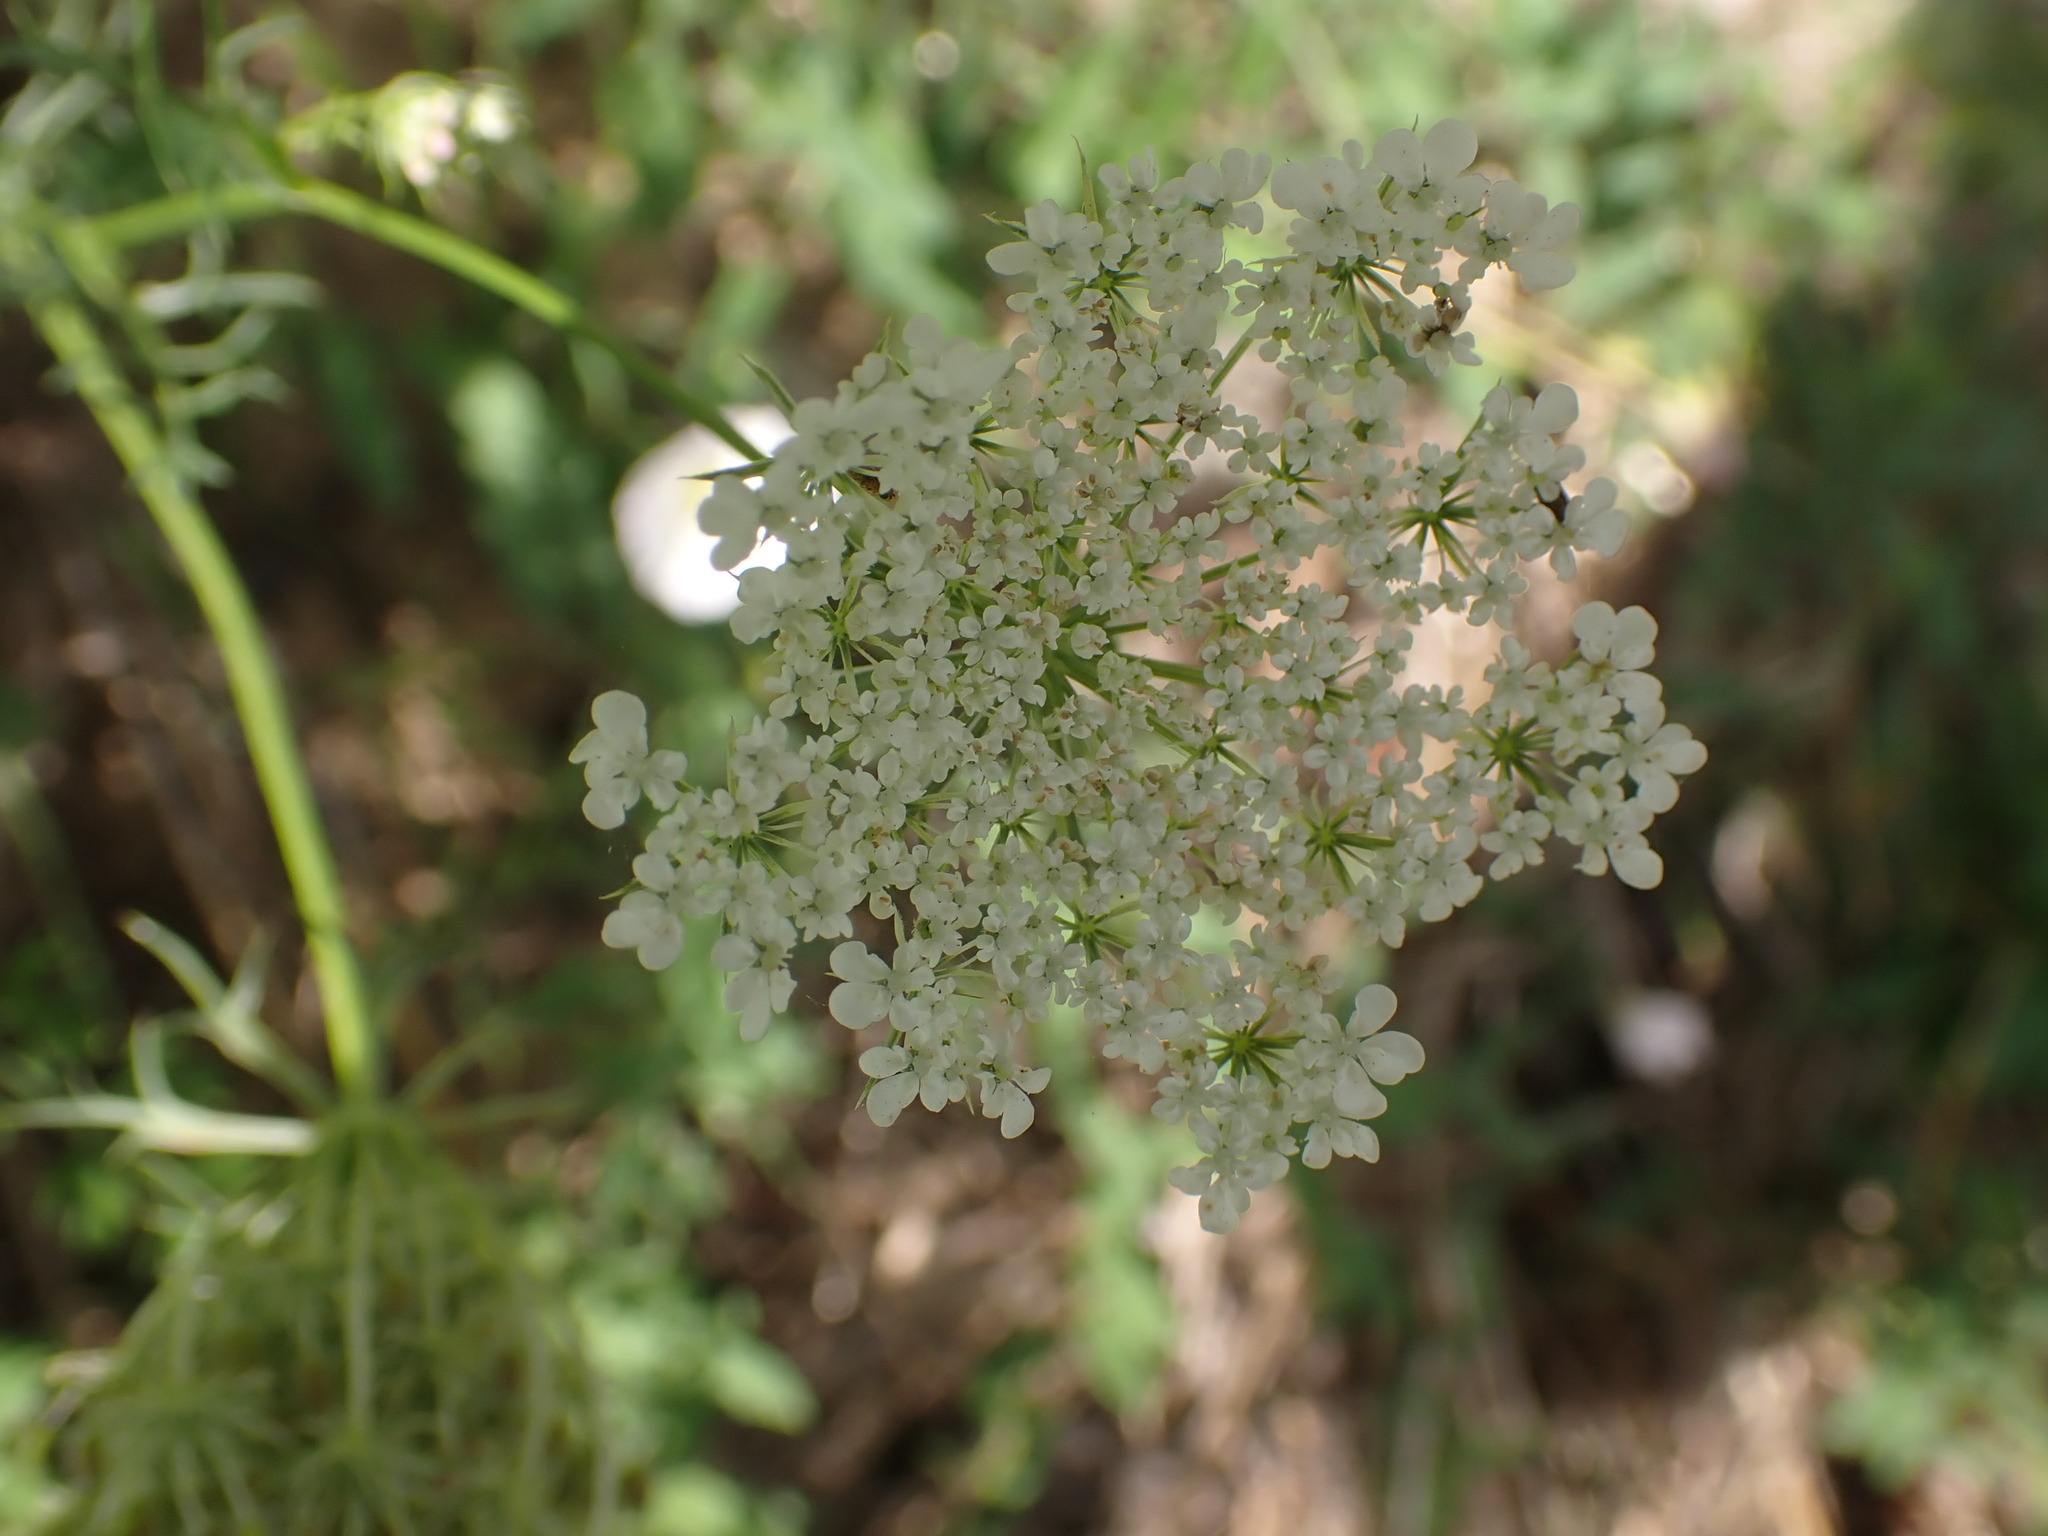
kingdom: Plantae
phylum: Tracheophyta
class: Magnoliopsida
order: Apiales
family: Apiaceae
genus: Daucus
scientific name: Daucus carota
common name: Wild carrot
